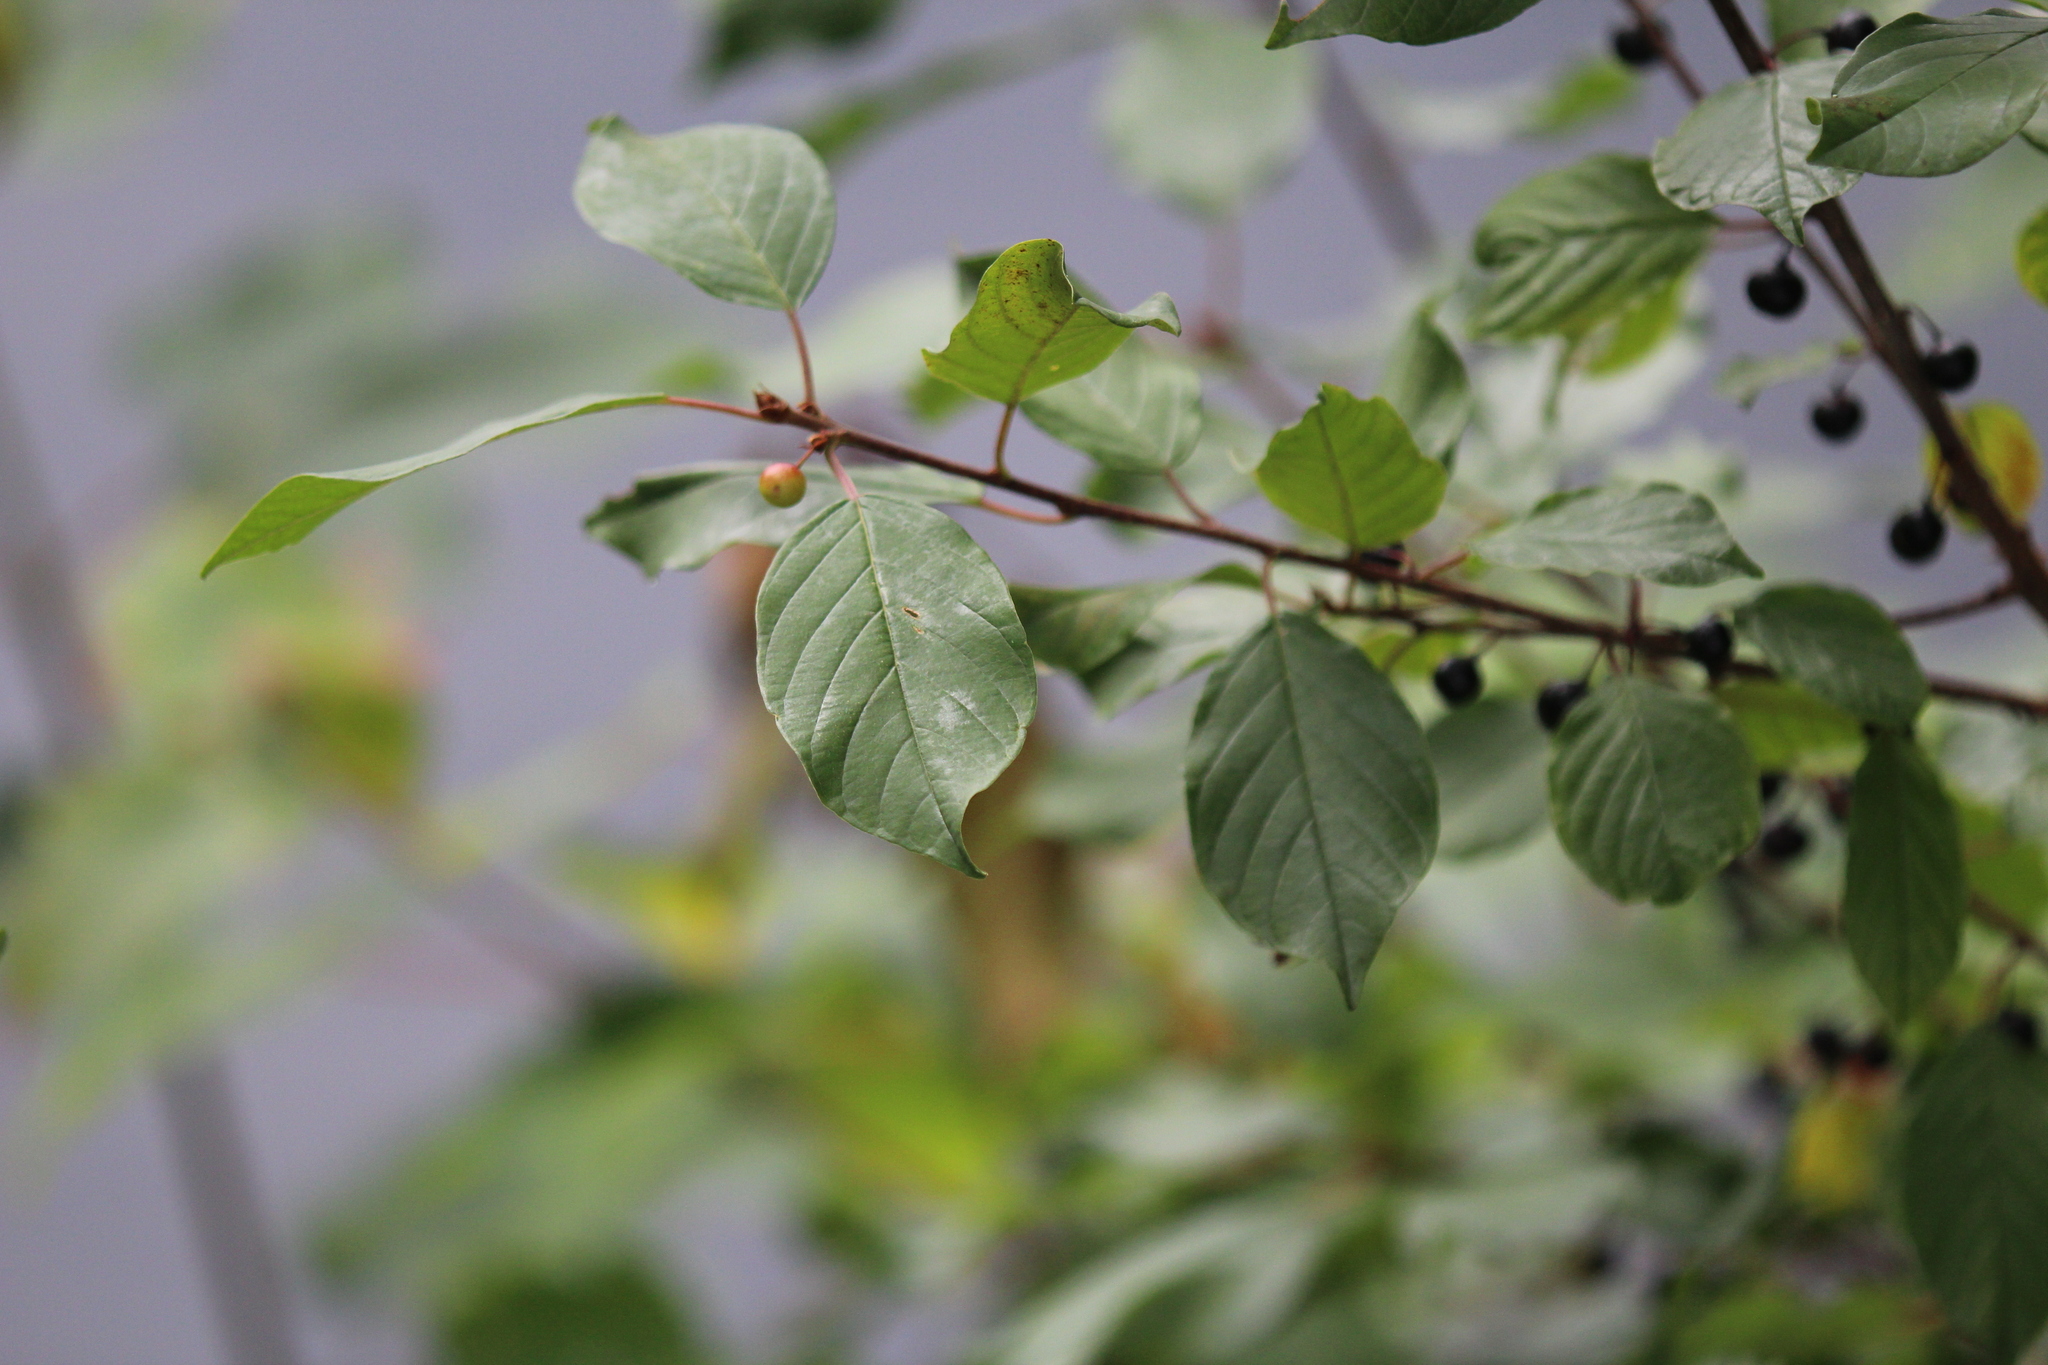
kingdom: Plantae
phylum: Tracheophyta
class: Magnoliopsida
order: Rosales
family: Rhamnaceae
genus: Frangula
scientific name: Frangula alnus
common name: Alder buckthorn
